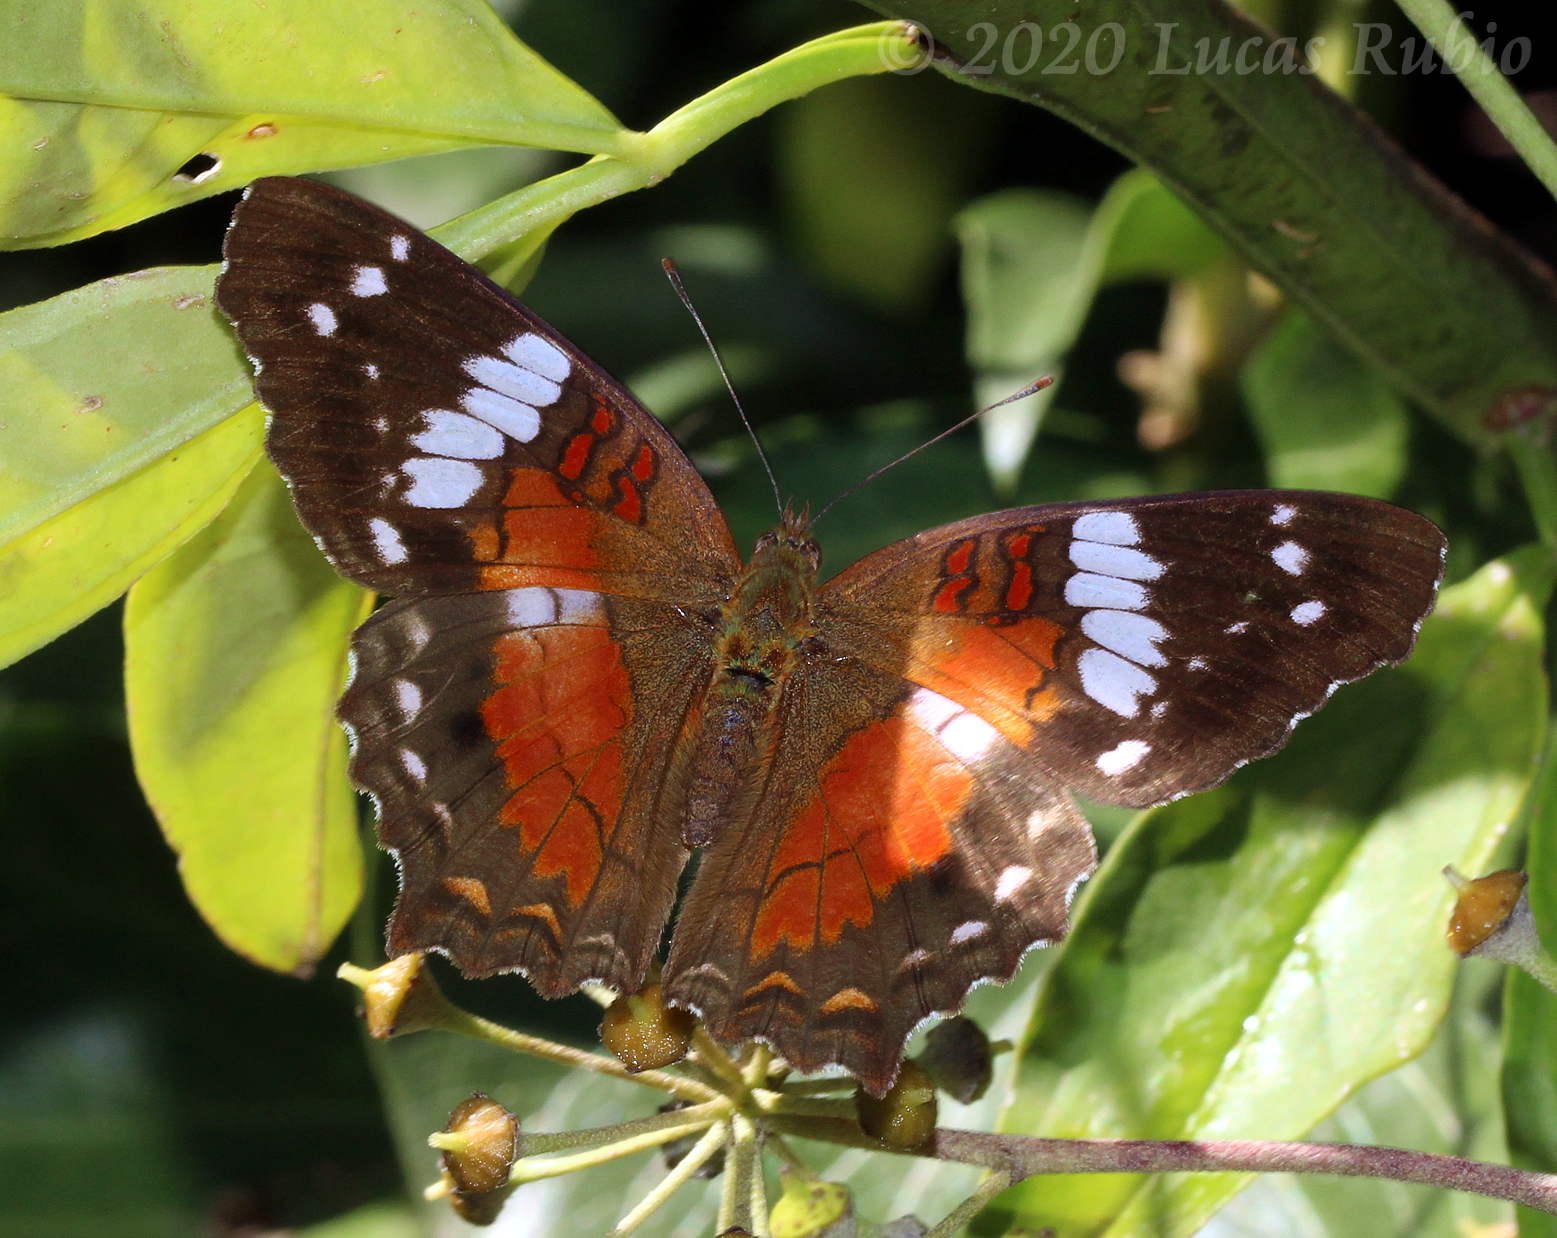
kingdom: Animalia
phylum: Arthropoda
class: Insecta
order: Lepidoptera
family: Nymphalidae
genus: Anartia
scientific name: Anartia amathea
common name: Red peacock
